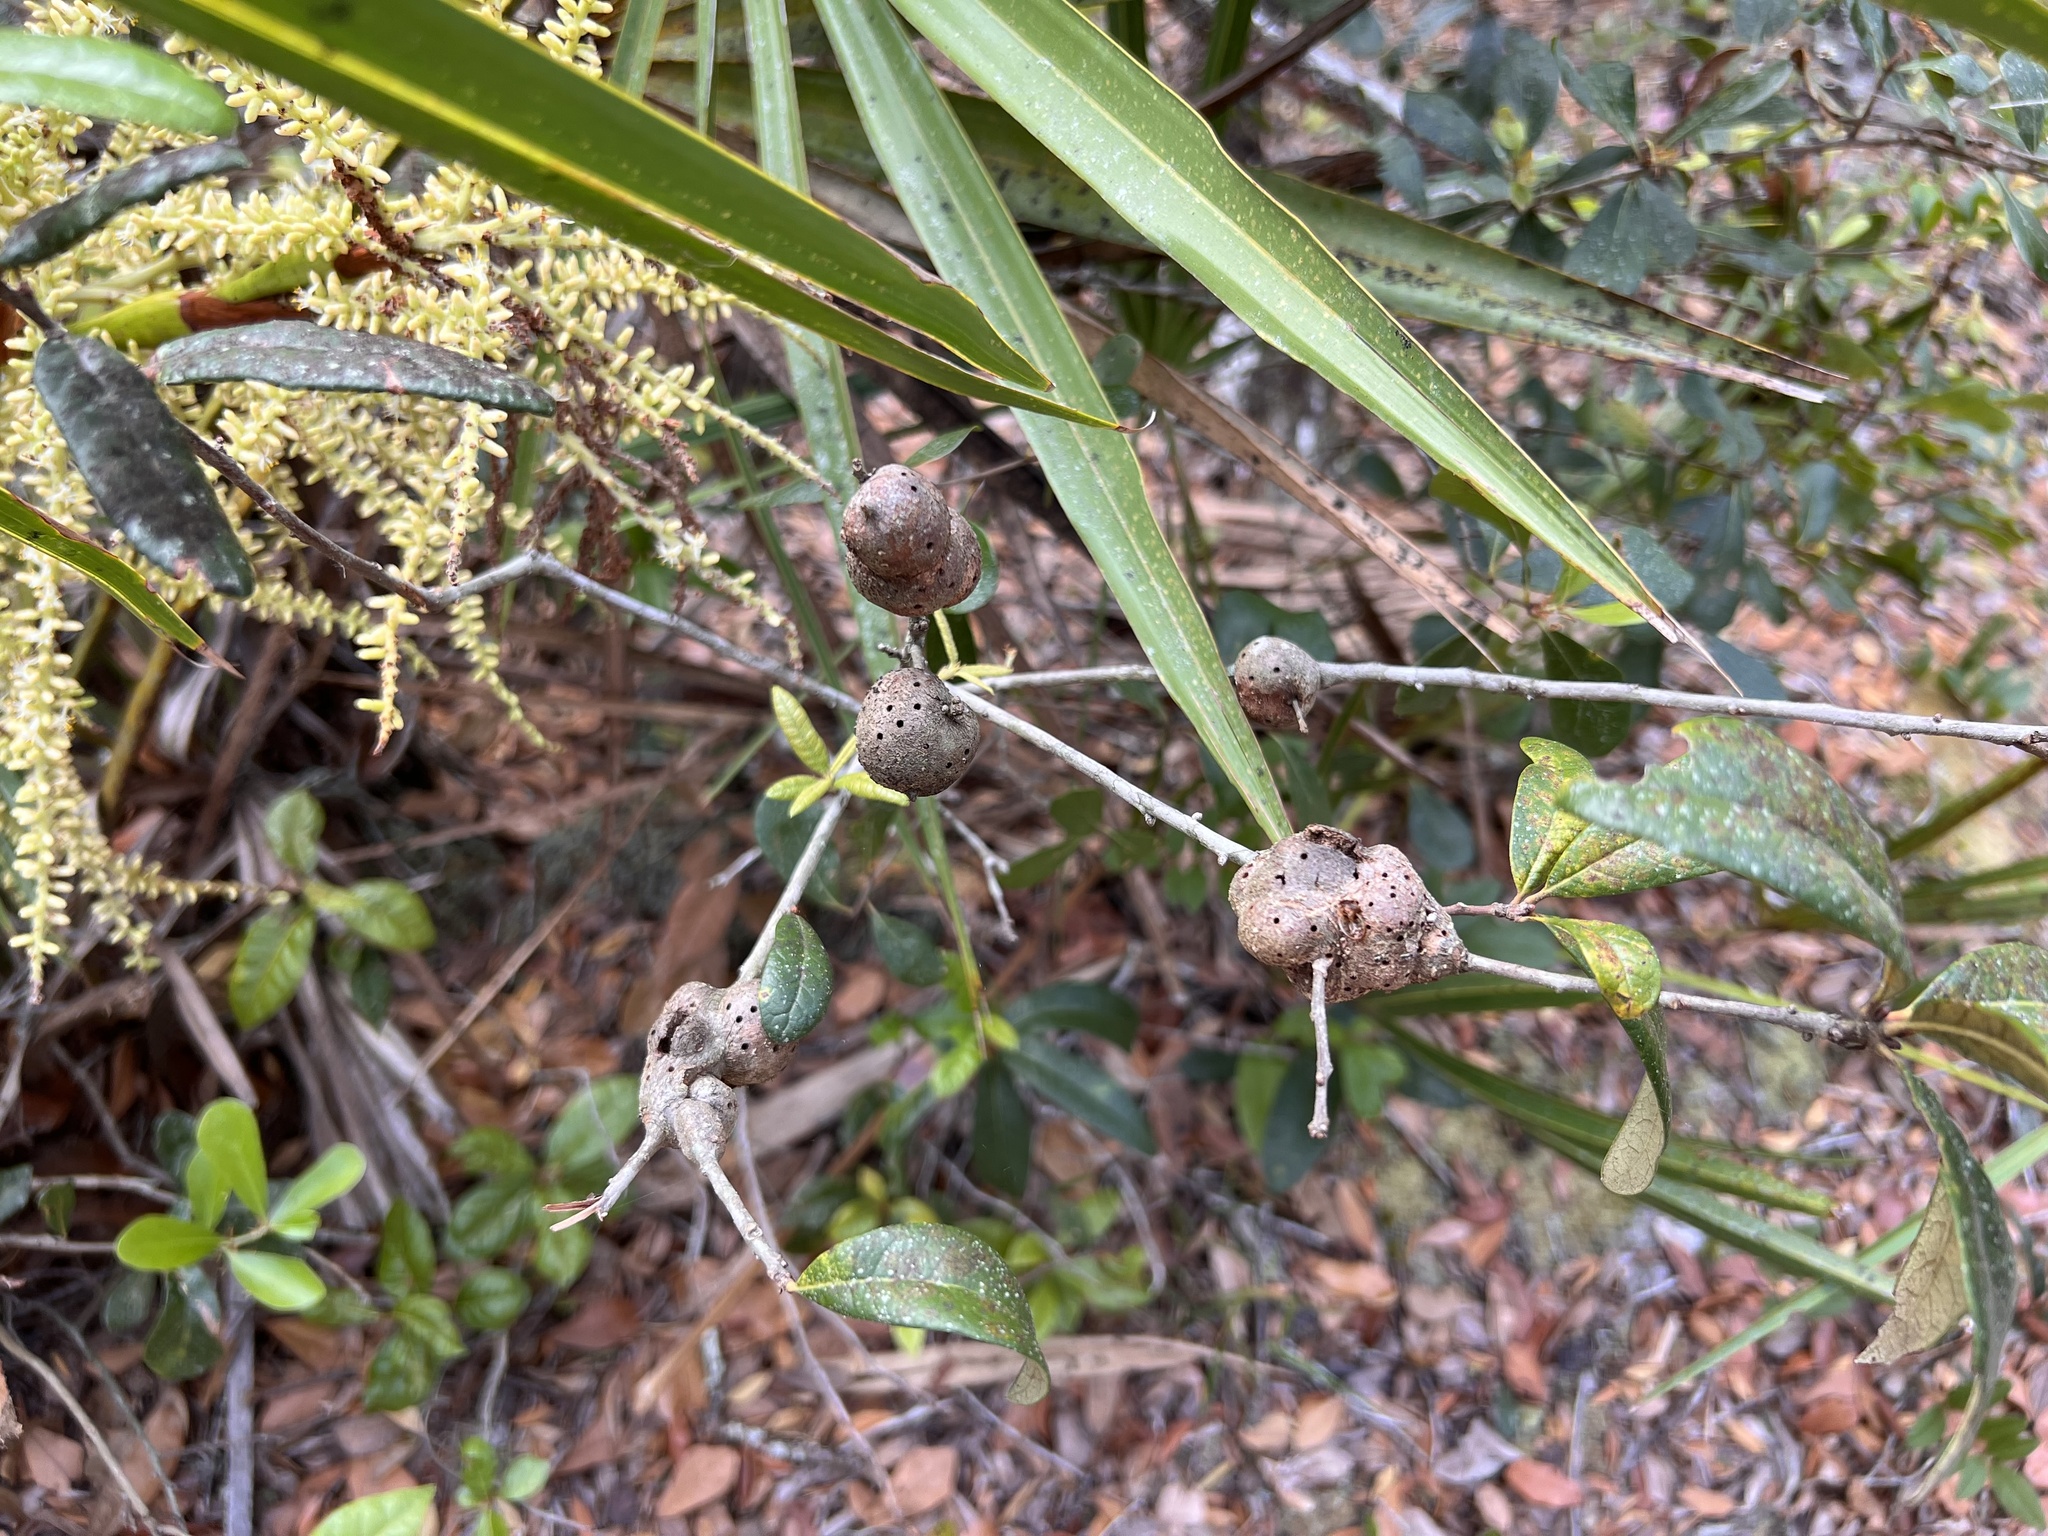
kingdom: Animalia
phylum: Arthropoda
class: Insecta
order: Hymenoptera
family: Cynipidae
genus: Callirhytis
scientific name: Callirhytis
